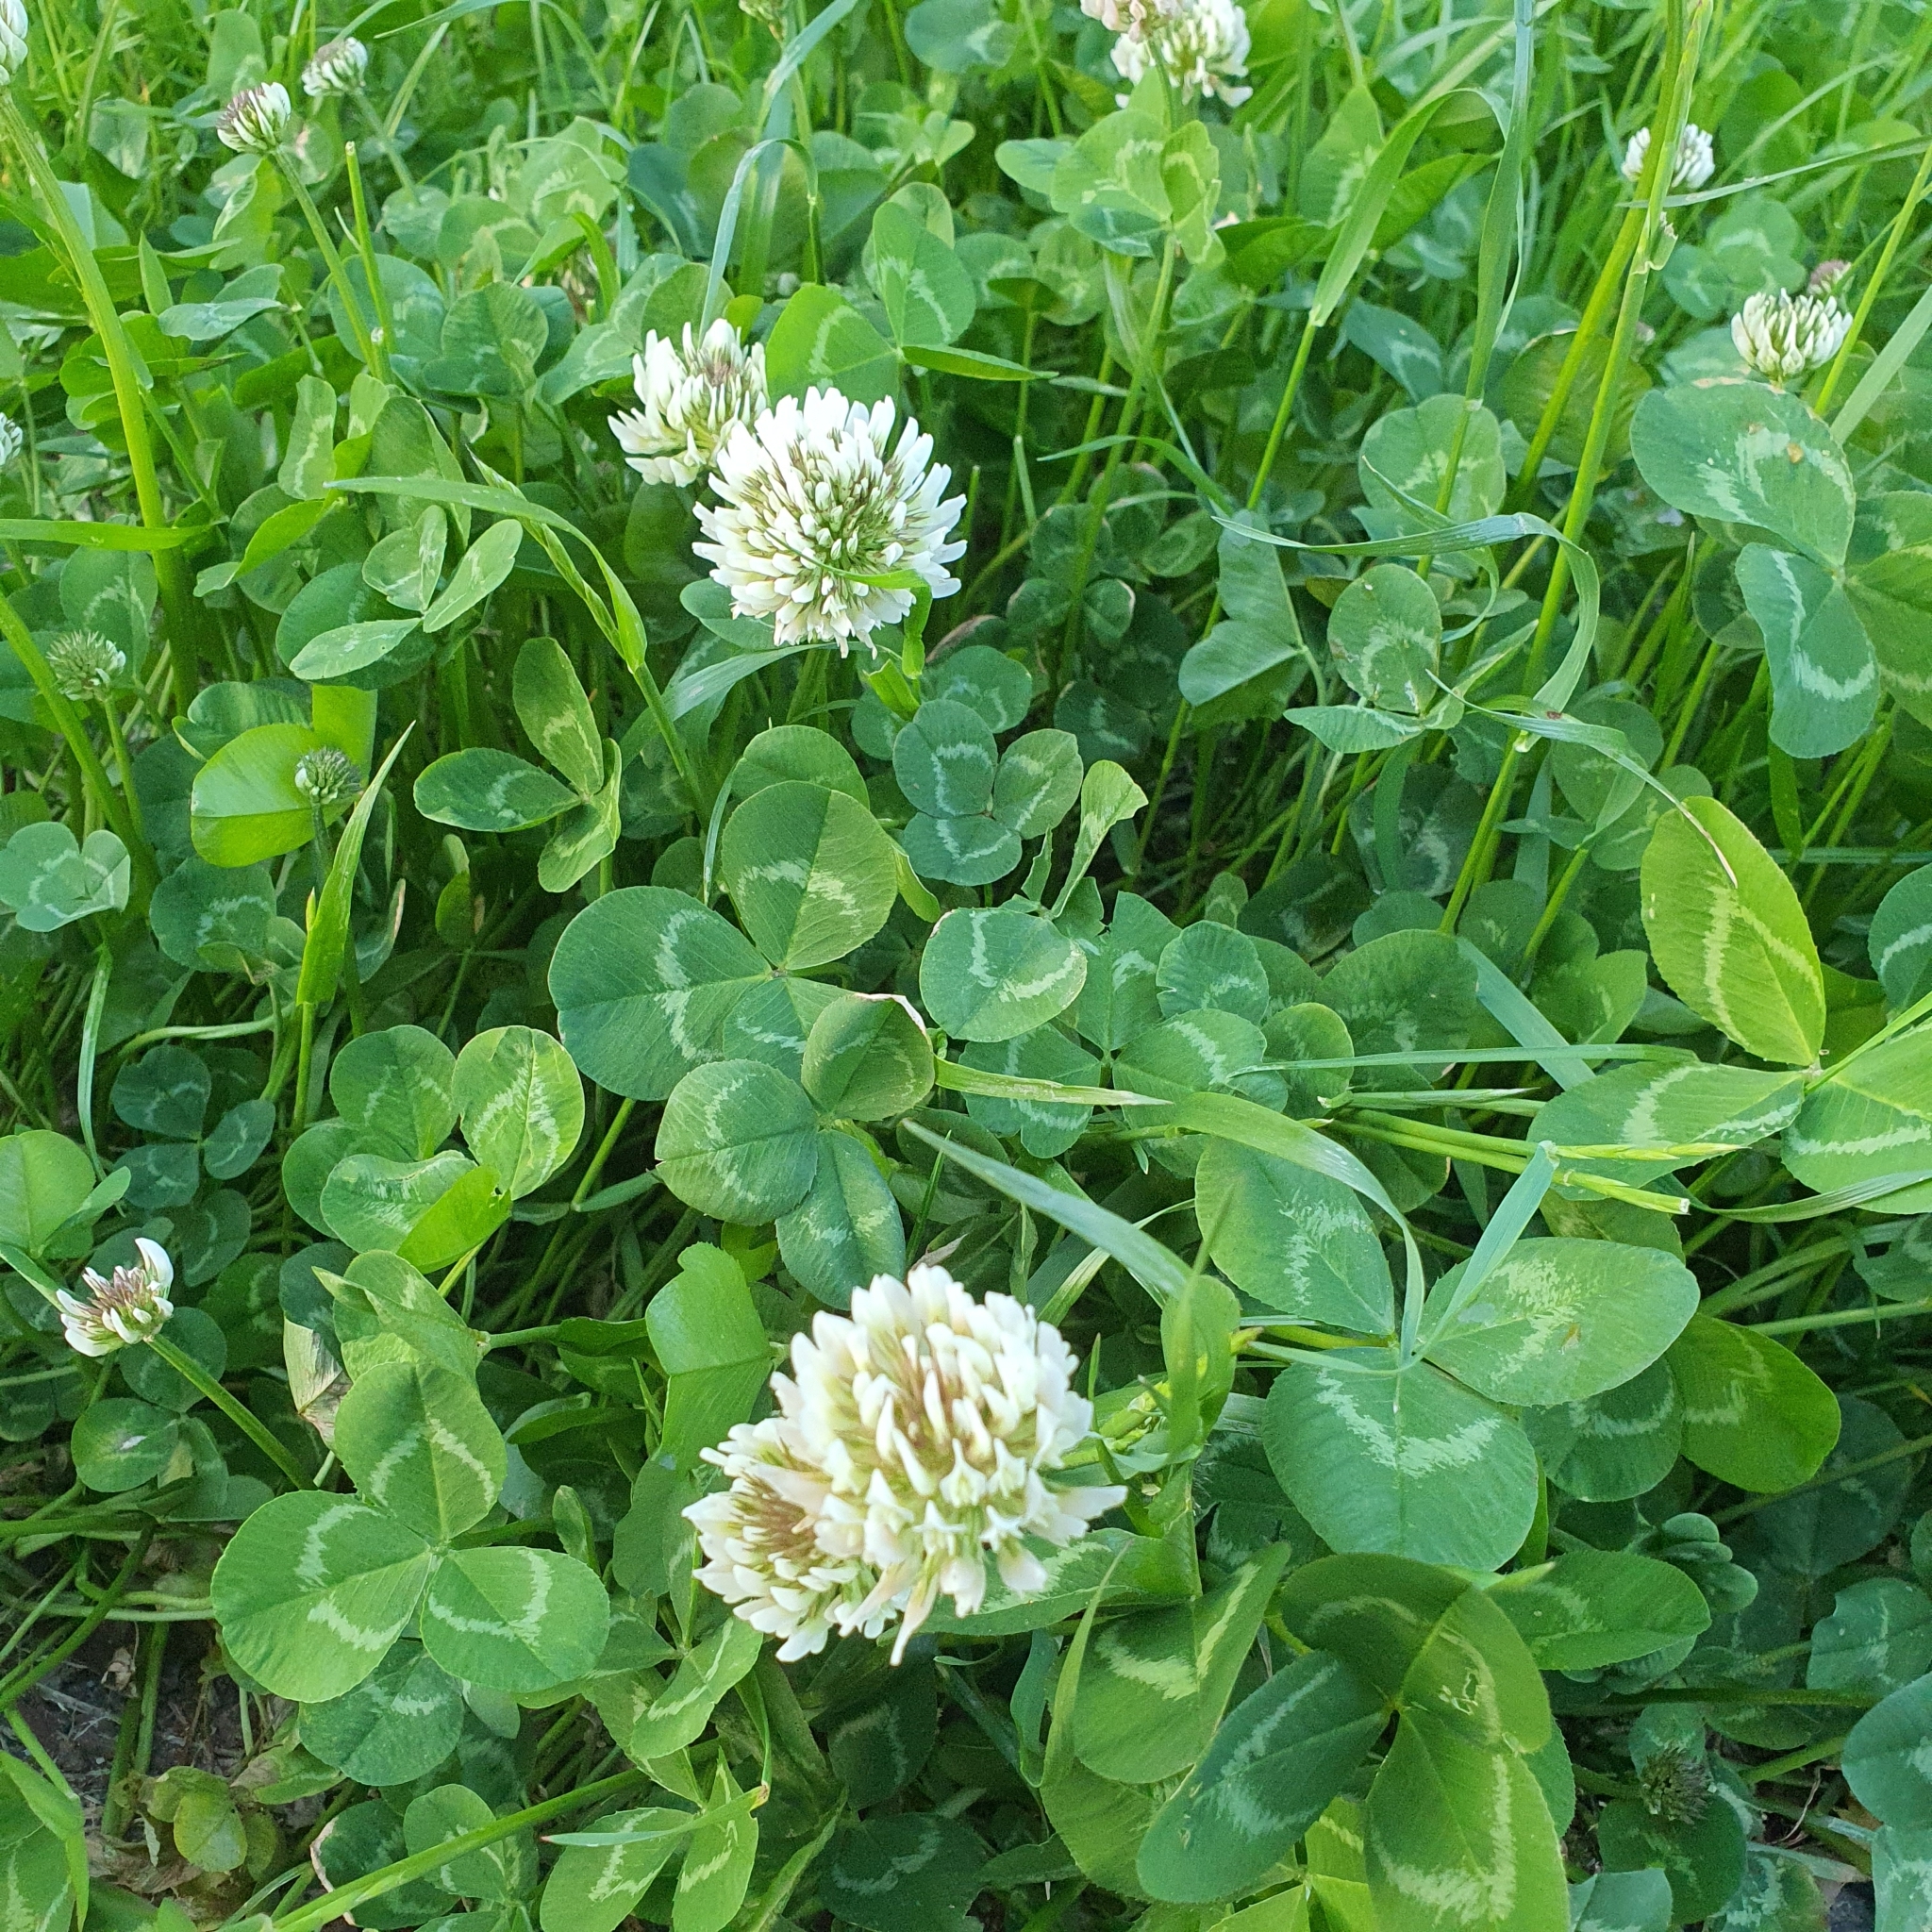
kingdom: Plantae
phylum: Tracheophyta
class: Magnoliopsida
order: Fabales
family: Fabaceae
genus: Trifolium
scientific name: Trifolium repens
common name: White clover
